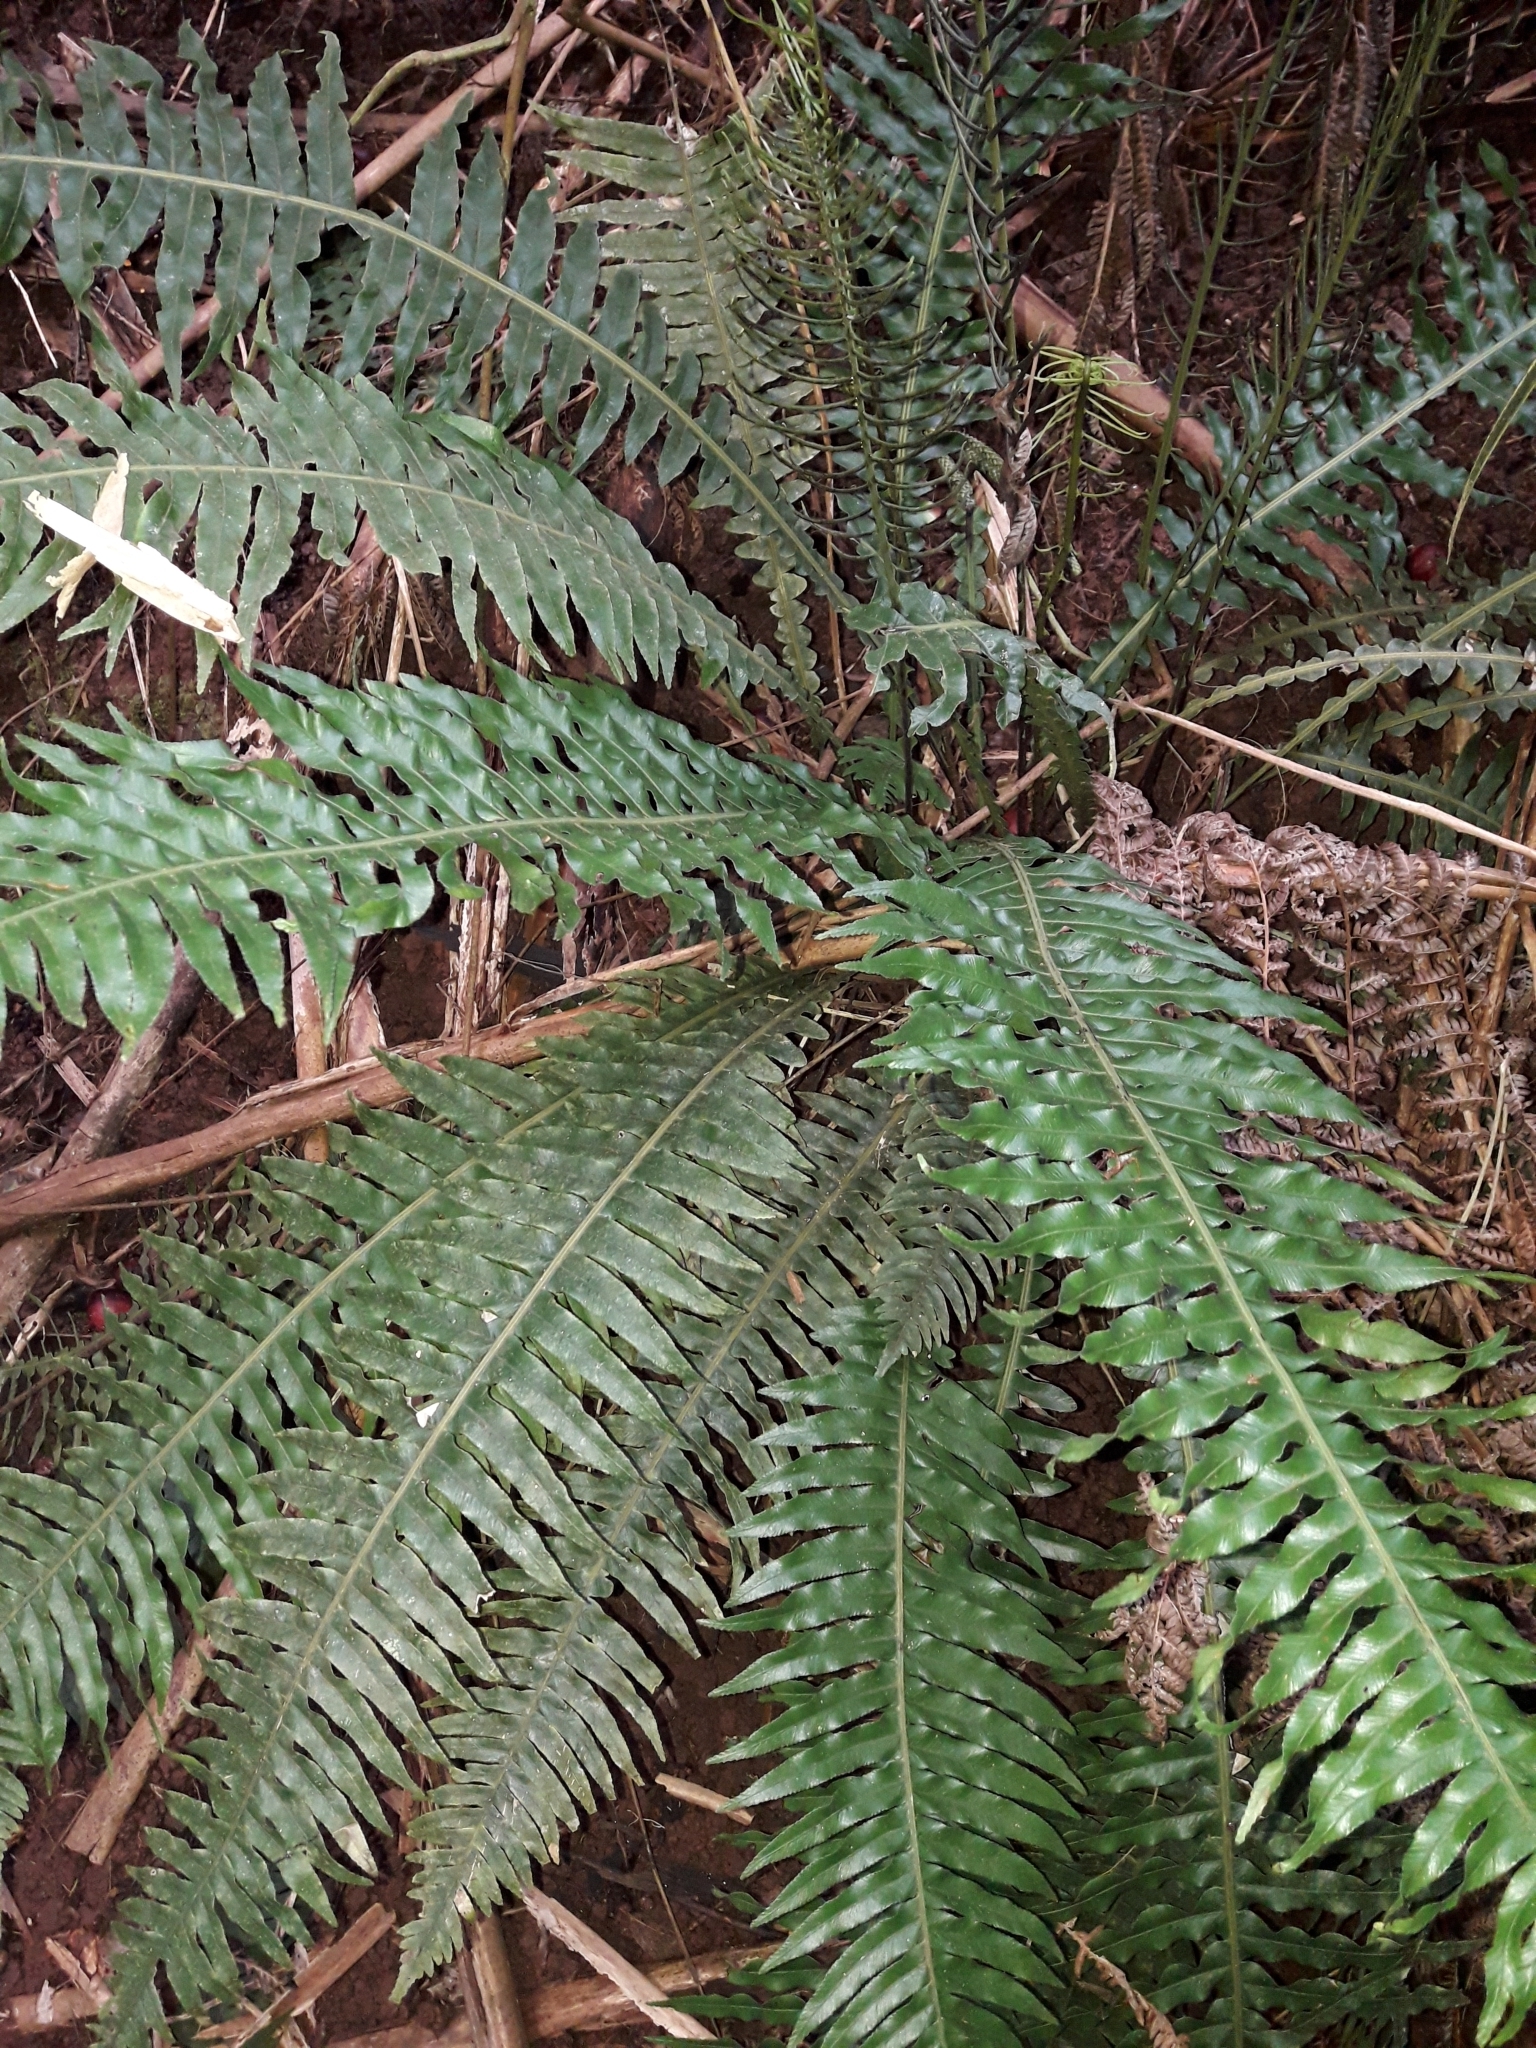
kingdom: Plantae
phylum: Tracheophyta
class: Polypodiopsida
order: Polypodiales
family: Blechnaceae
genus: Austroblechnum
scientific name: Austroblechnum norfolkianum
